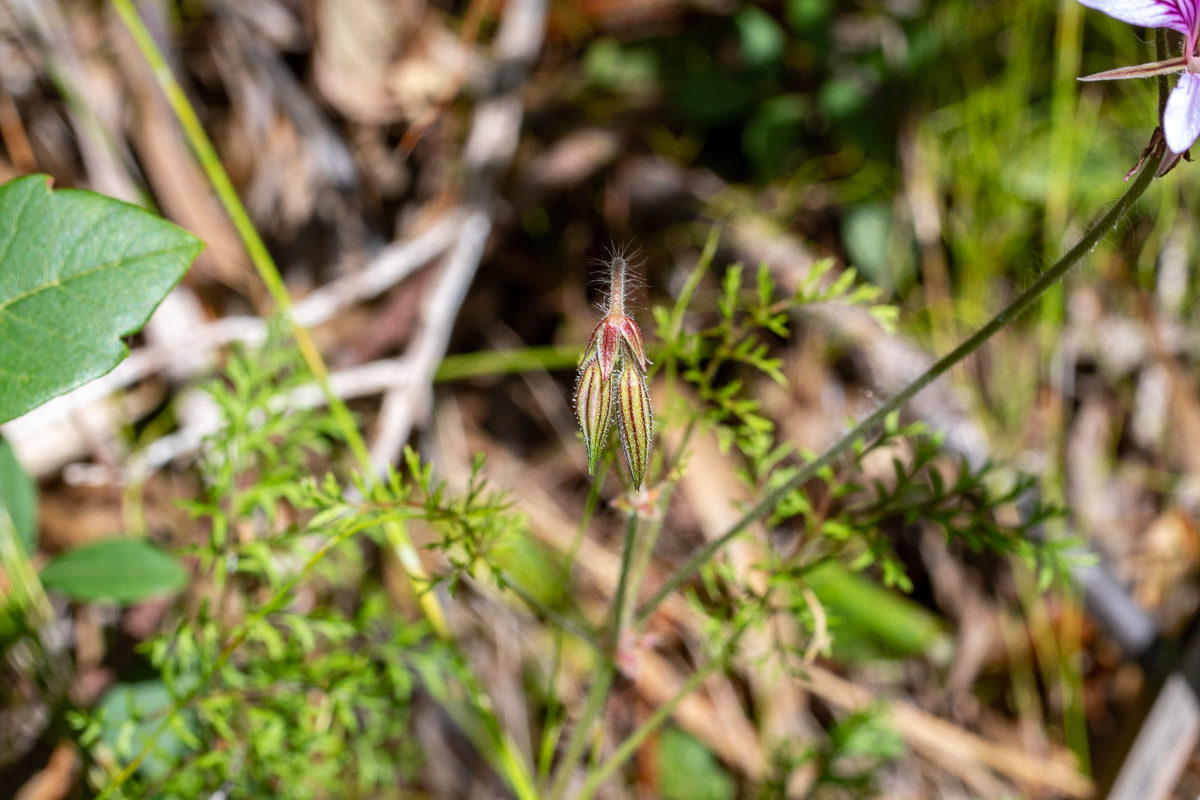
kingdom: Plantae
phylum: Tracheophyta
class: Magnoliopsida
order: Geraniales
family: Geraniaceae
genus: Pelargonium
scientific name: Pelargonium myrrhifolium
